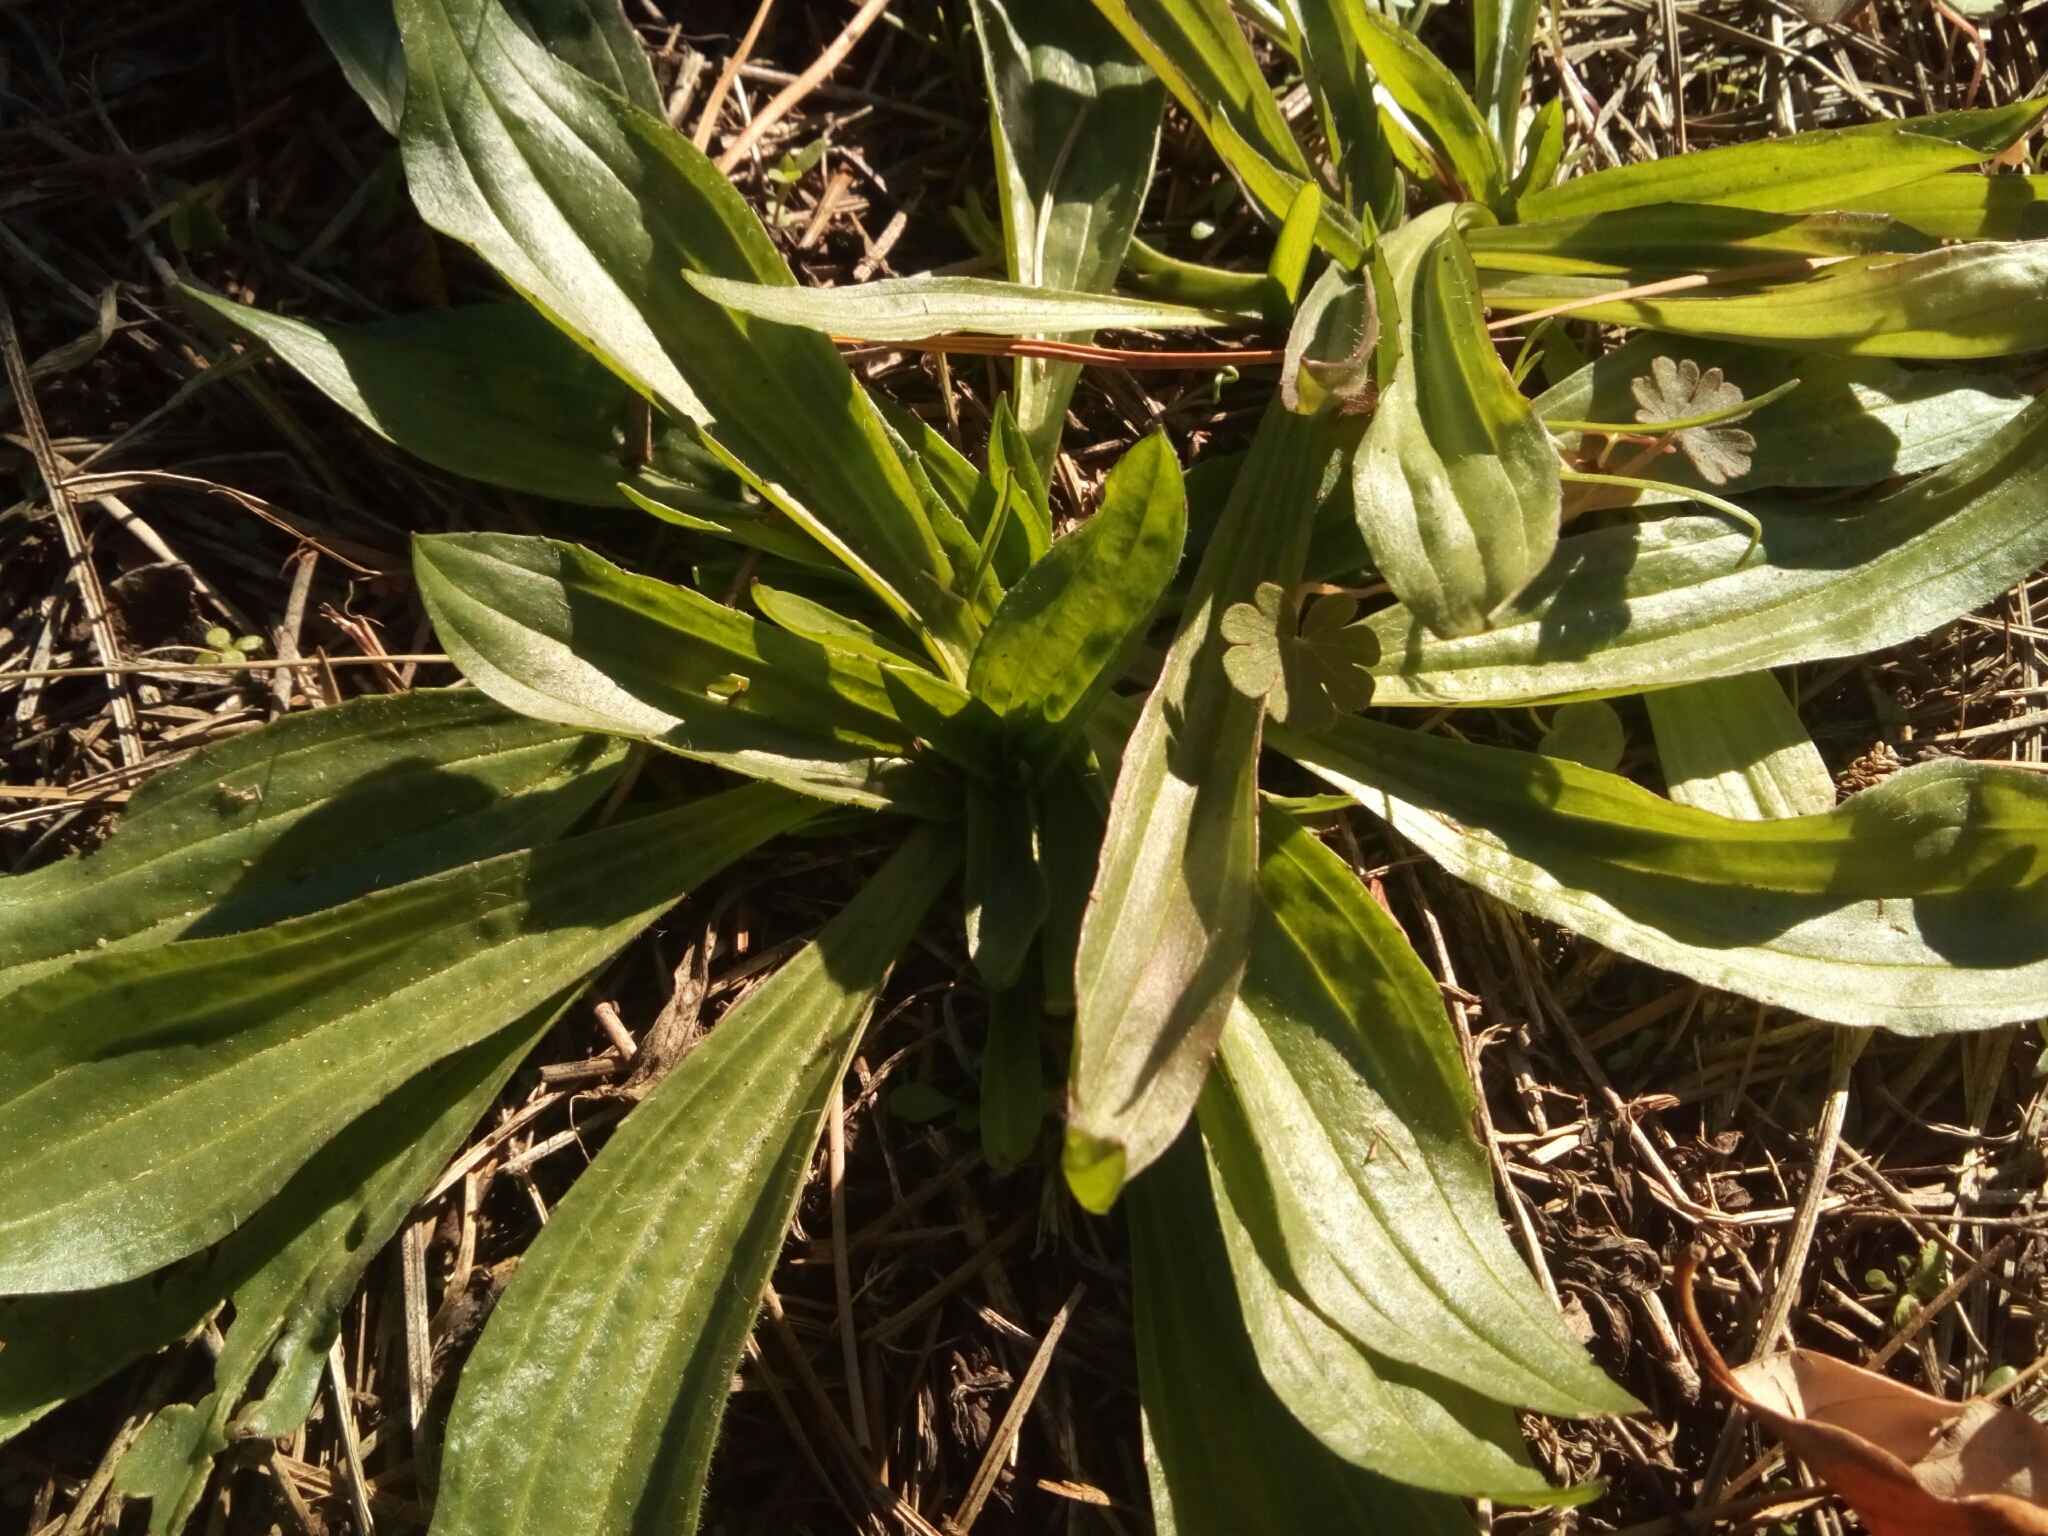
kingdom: Plantae
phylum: Tracheophyta
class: Magnoliopsida
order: Lamiales
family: Plantaginaceae
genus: Plantago
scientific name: Plantago lanceolata
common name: Ribwort plantain
